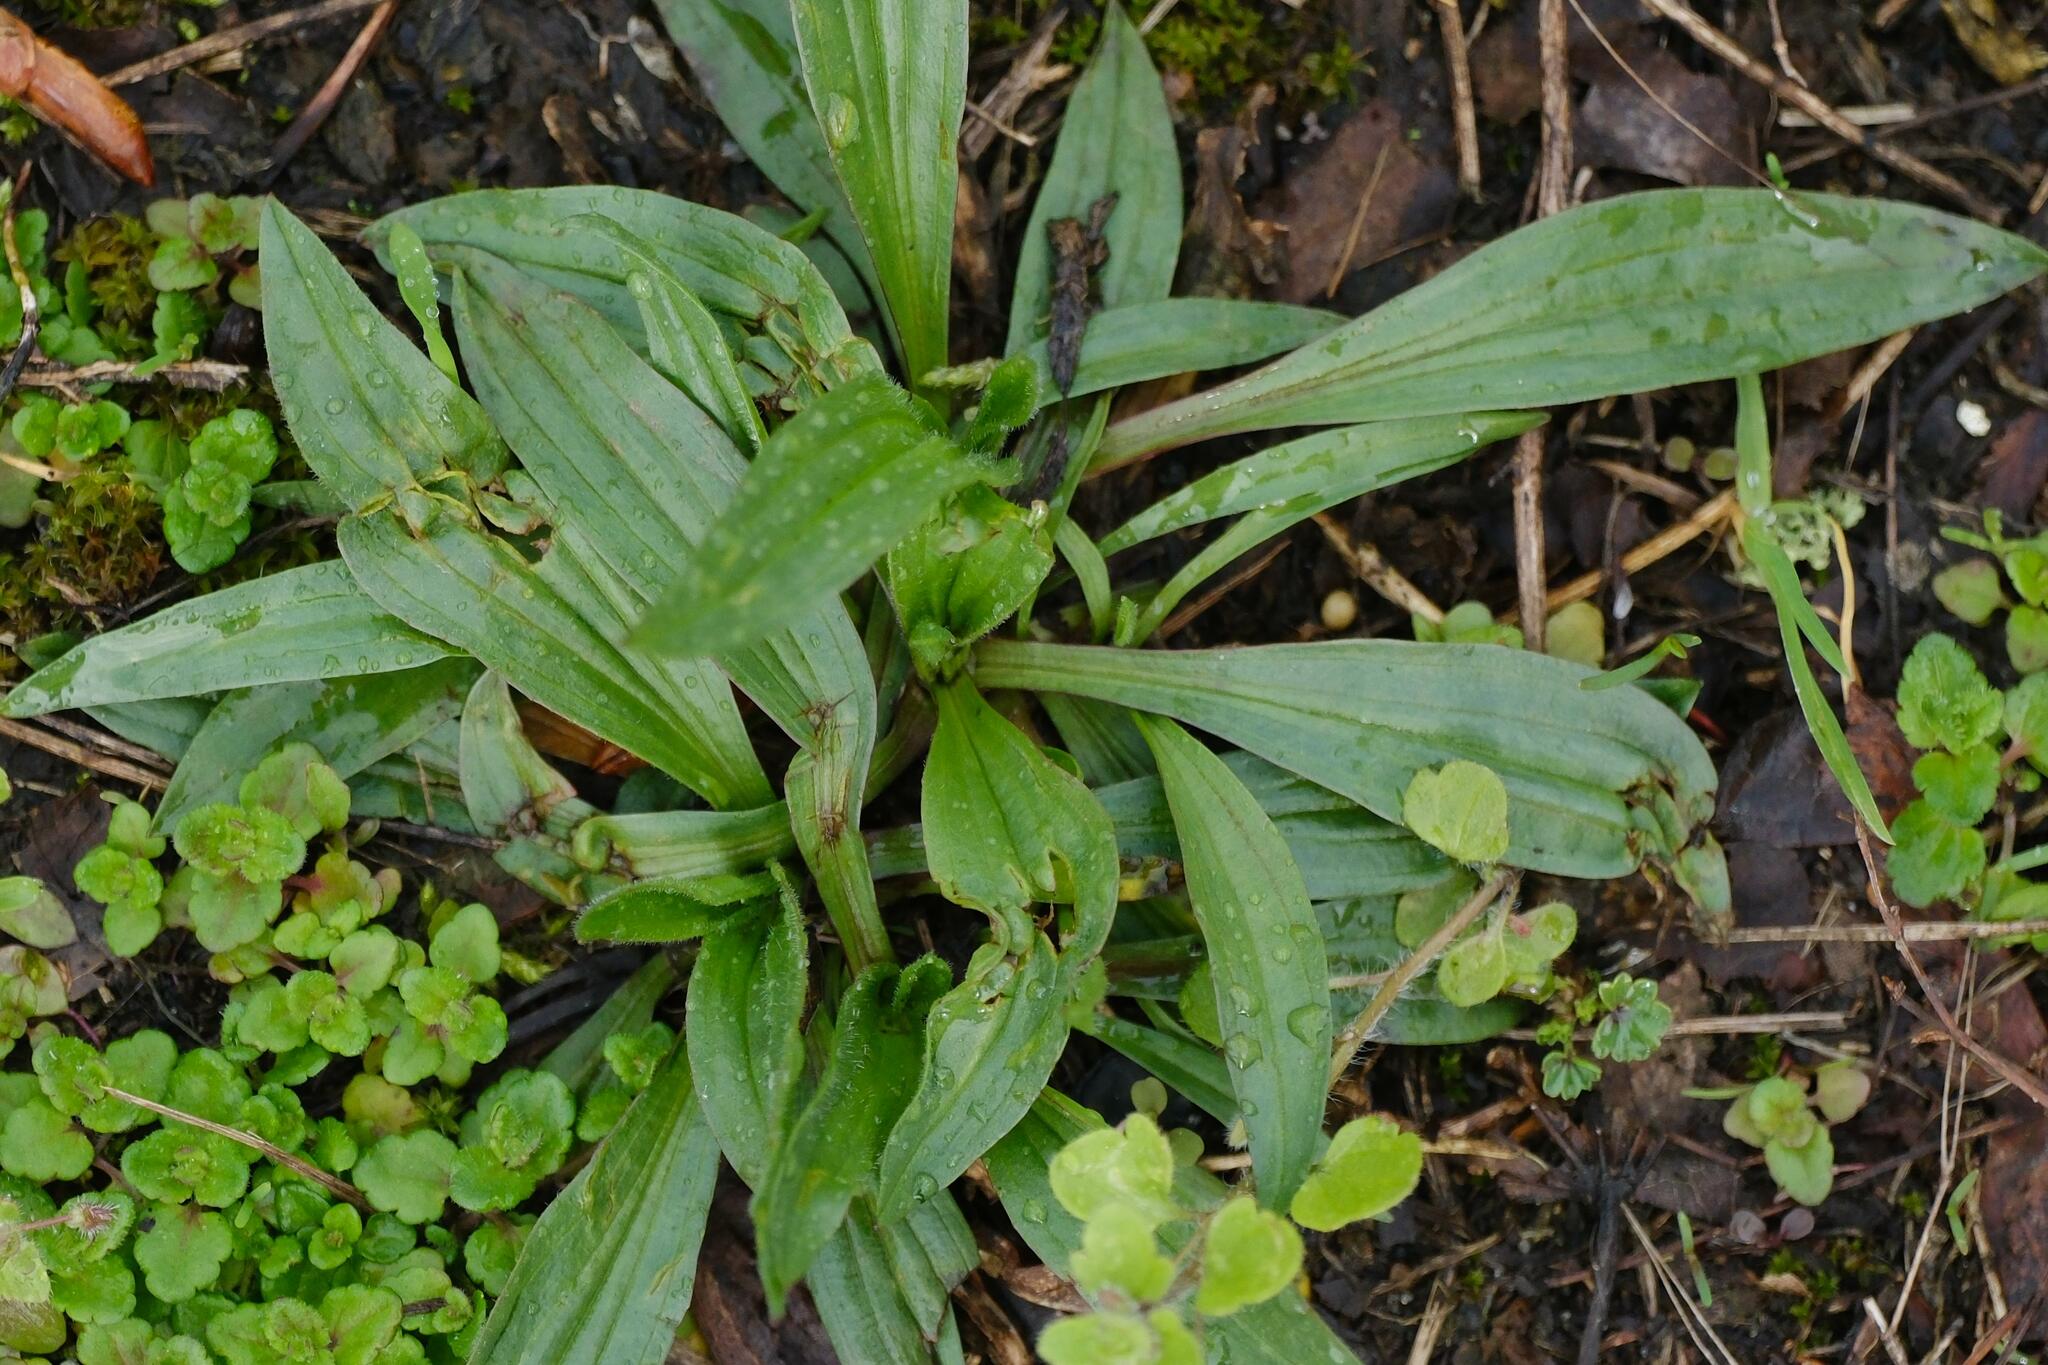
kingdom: Plantae
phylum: Tracheophyta
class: Magnoliopsida
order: Lamiales
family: Plantaginaceae
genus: Plantago
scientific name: Plantago lanceolata
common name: Ribwort plantain
